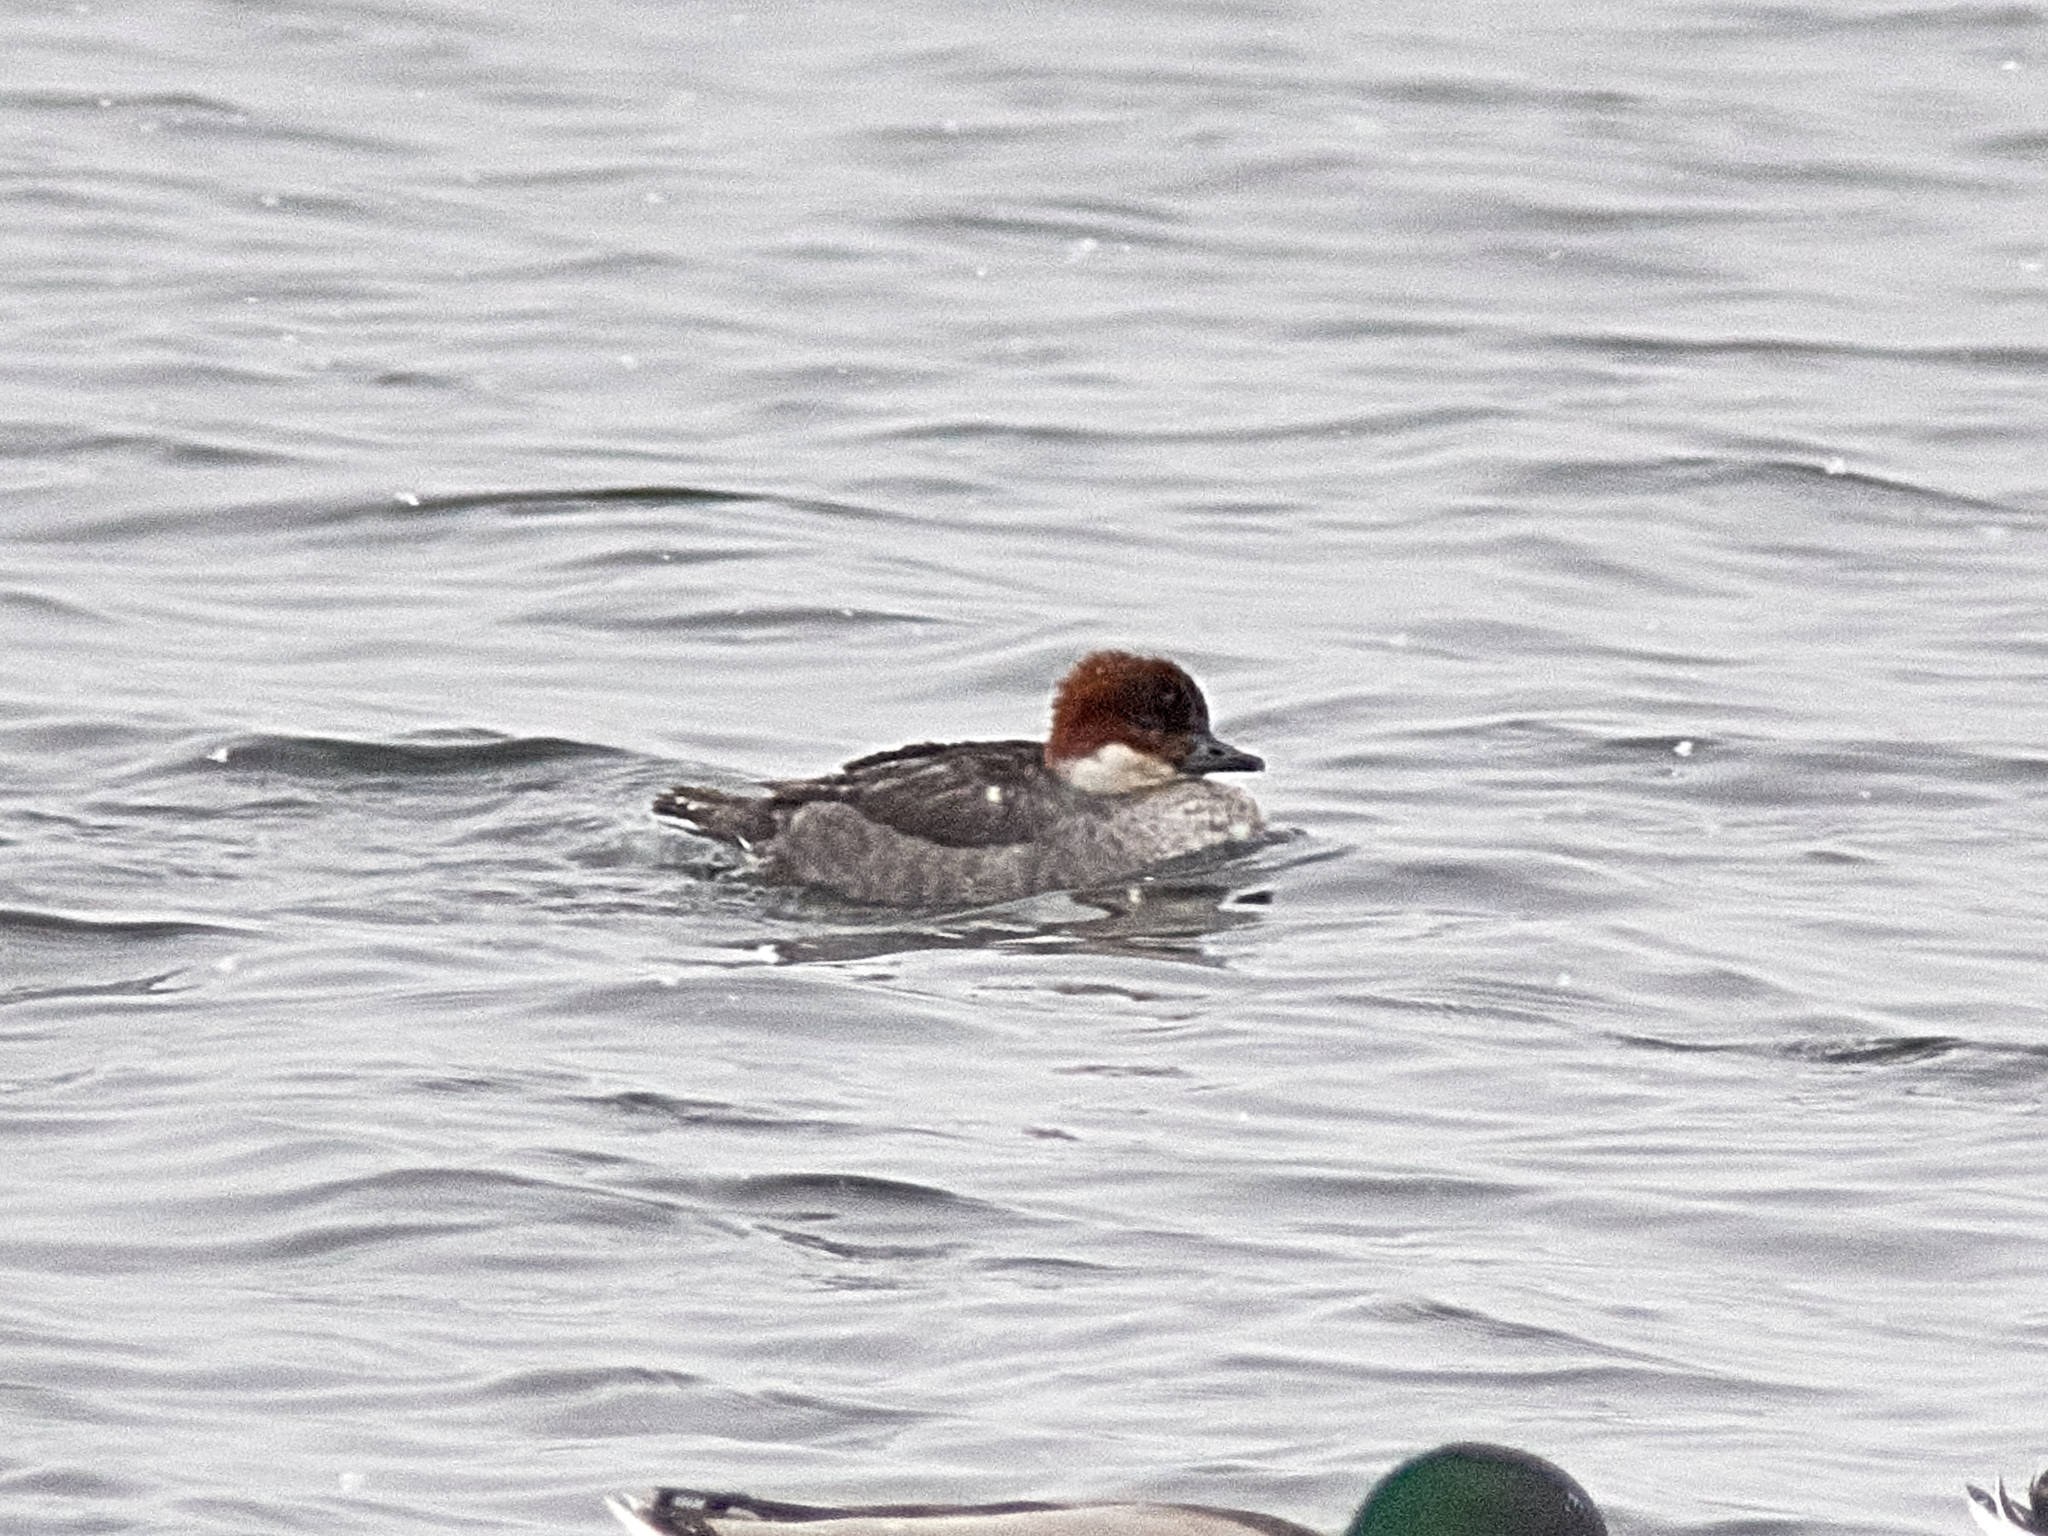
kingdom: Animalia
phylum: Chordata
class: Aves
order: Anseriformes
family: Anatidae
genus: Mergellus
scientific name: Mergellus albellus
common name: Smew
